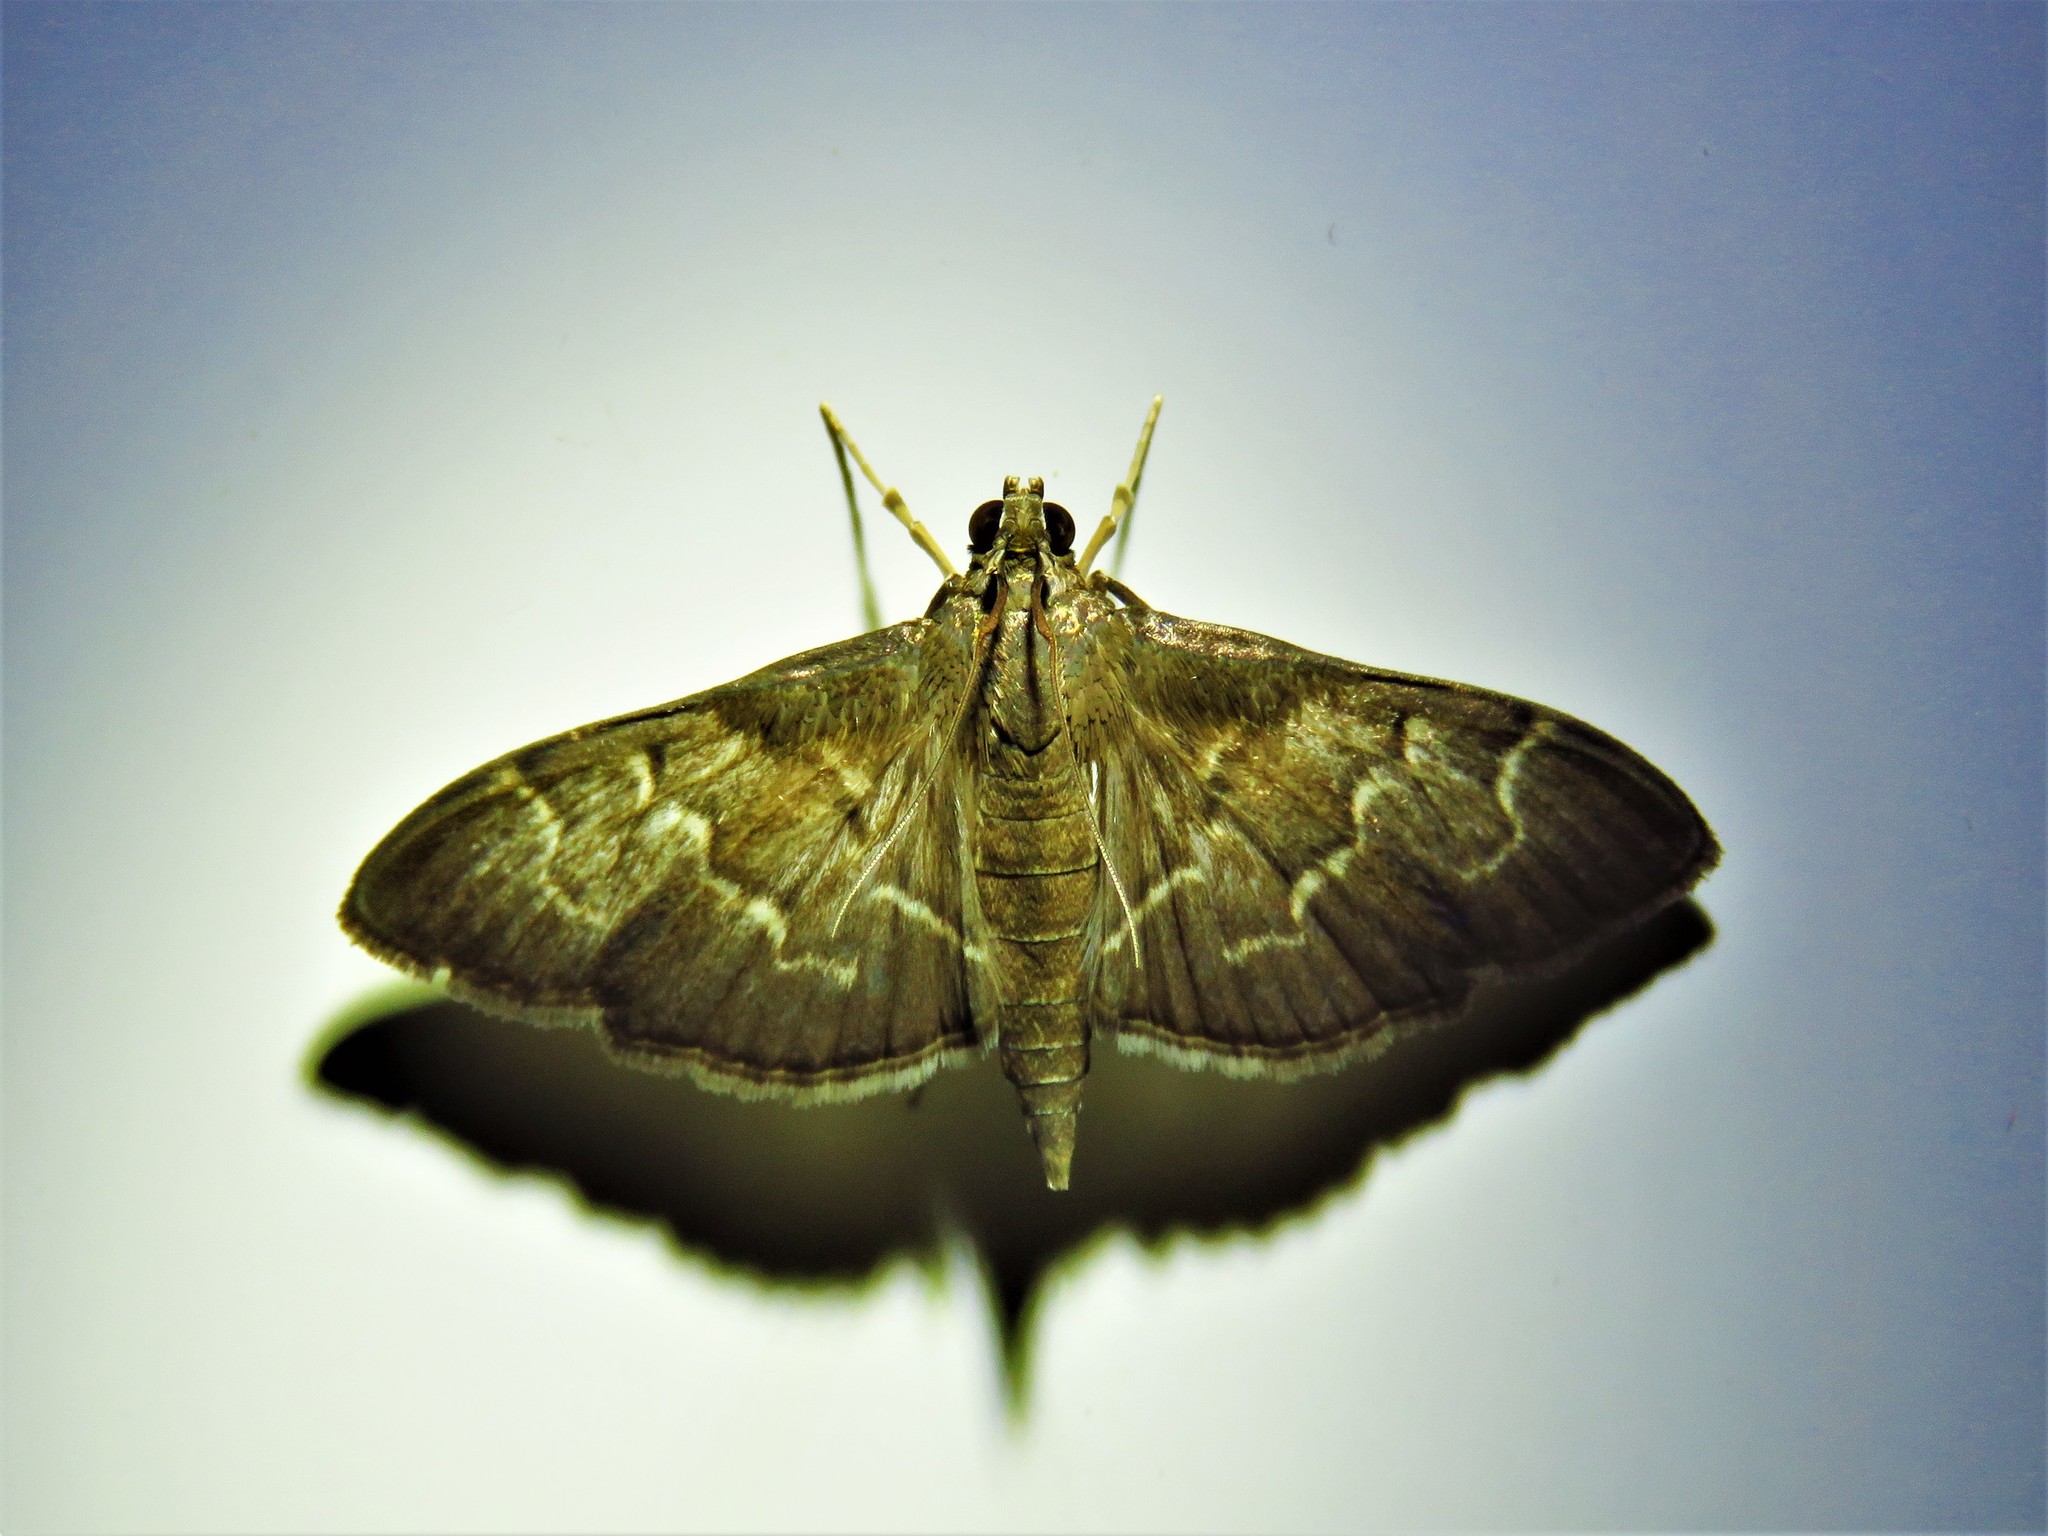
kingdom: Animalia
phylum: Arthropoda
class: Insecta
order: Lepidoptera
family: Crambidae
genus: Pilocrocis
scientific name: Pilocrocis ramentalis
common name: Scraped pilocrocis
